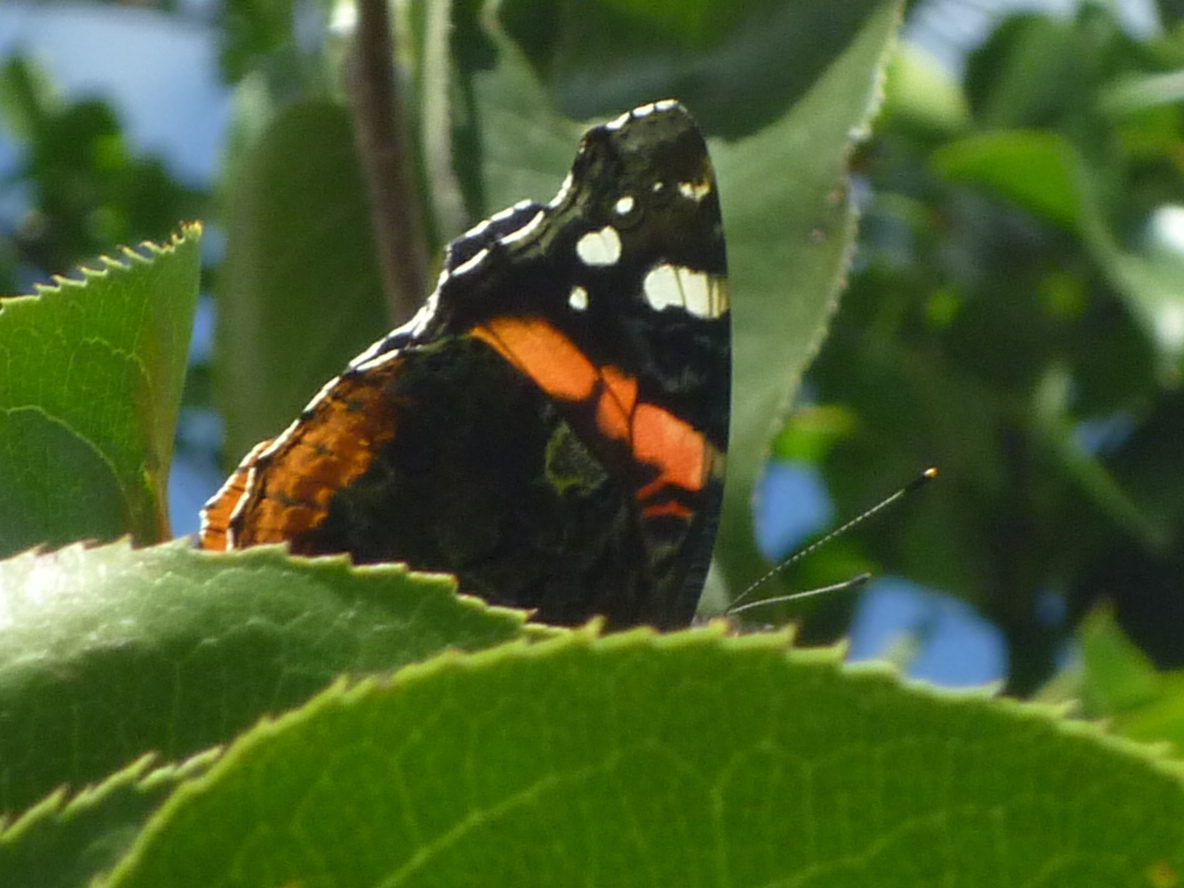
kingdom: Animalia
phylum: Arthropoda
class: Insecta
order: Lepidoptera
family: Nymphalidae
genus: Vanessa
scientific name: Vanessa atalanta
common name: Red admiral
